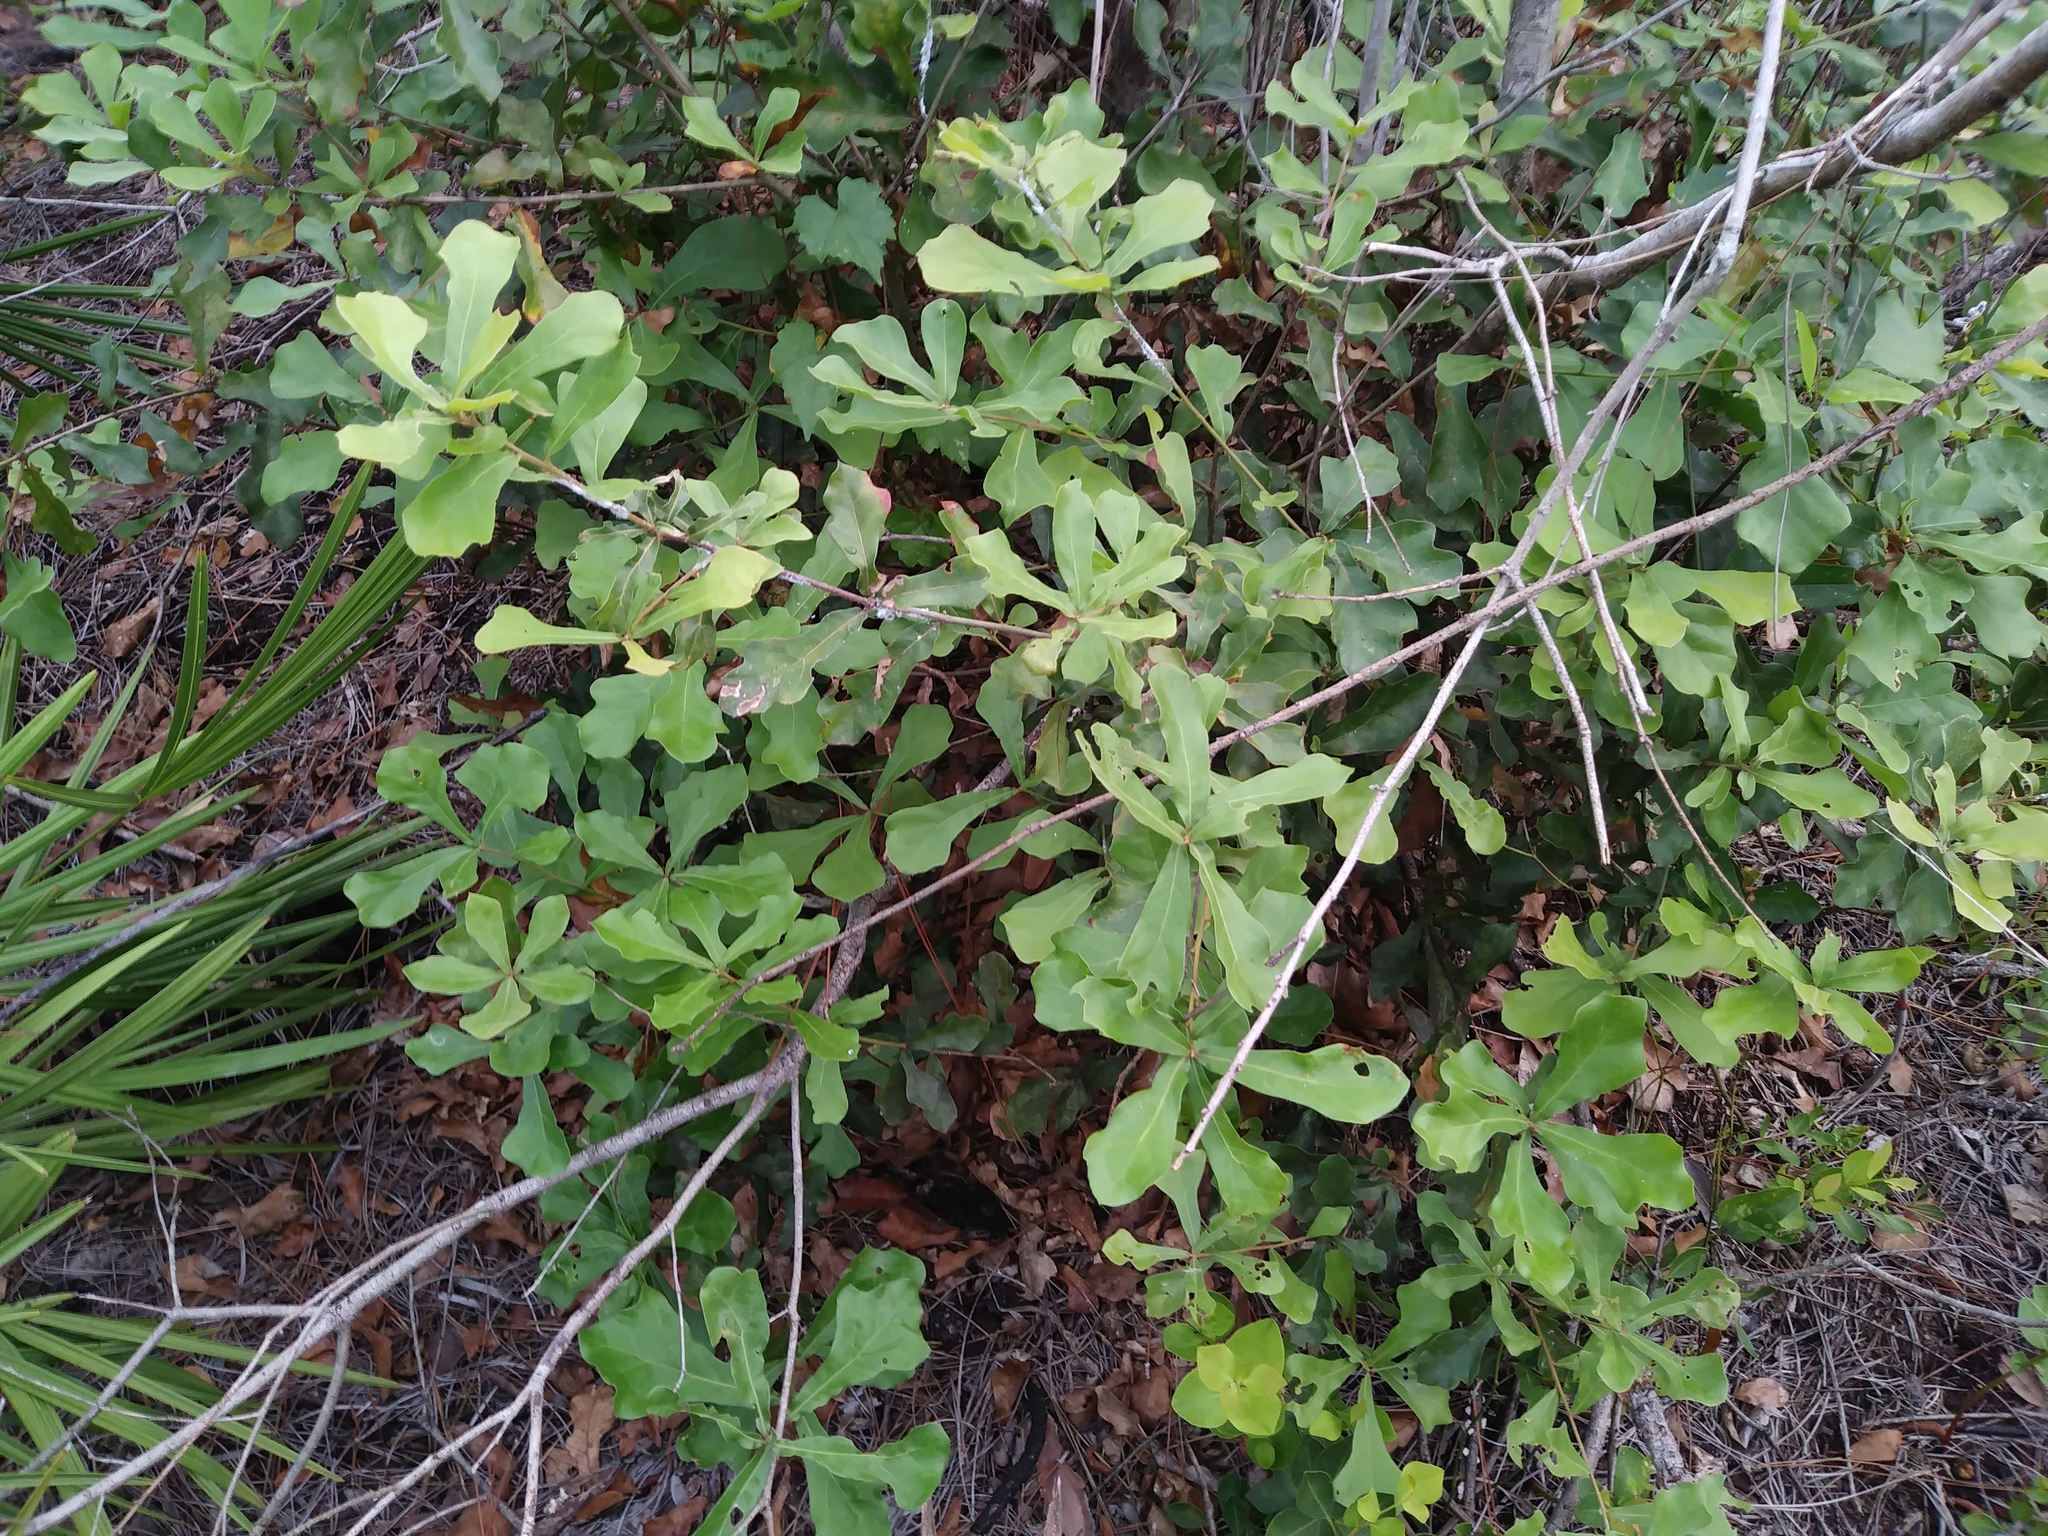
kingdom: Plantae
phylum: Tracheophyta
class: Magnoliopsida
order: Fagales
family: Fagaceae
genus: Quercus
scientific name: Quercus nigra
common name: Water oak
